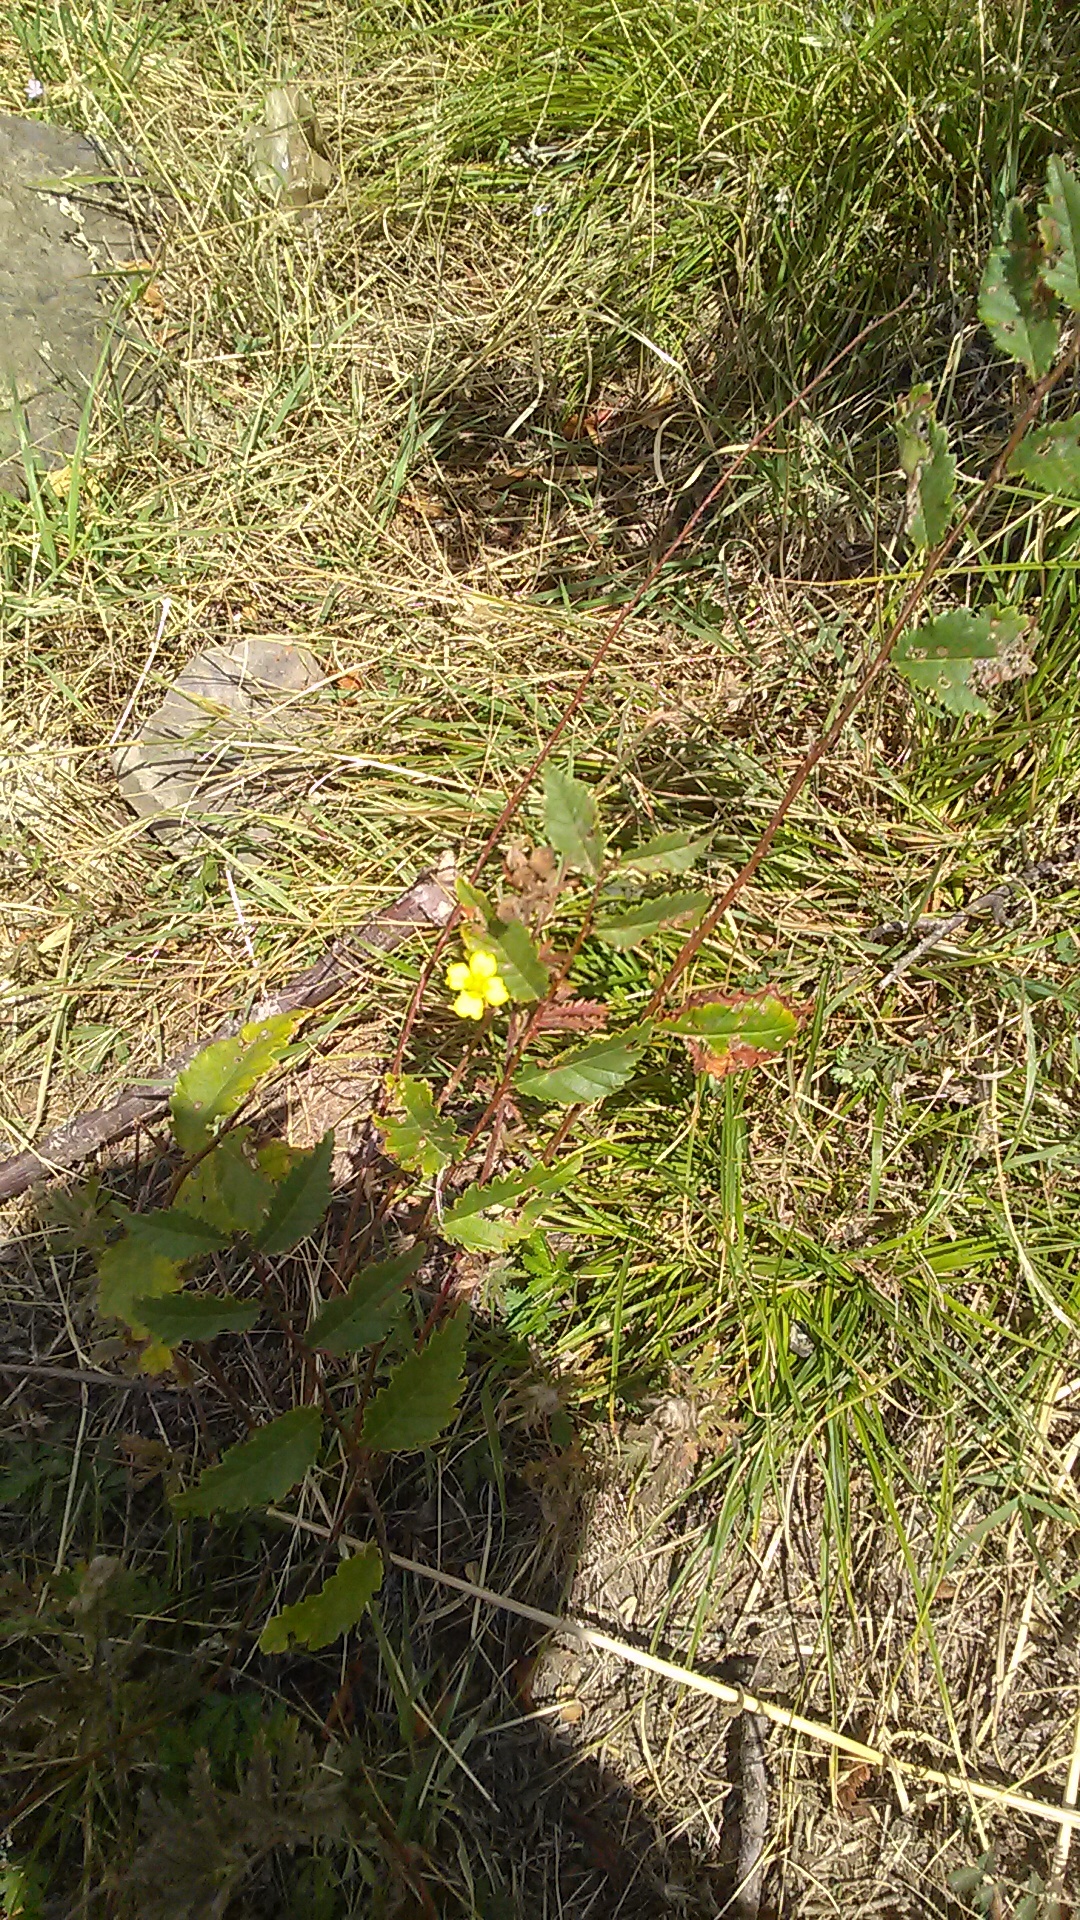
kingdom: Plantae
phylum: Tracheophyta
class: Magnoliopsida
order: Rosales
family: Ulmaceae
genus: Ulmus
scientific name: Ulmus minor
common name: Small-leaved elm
